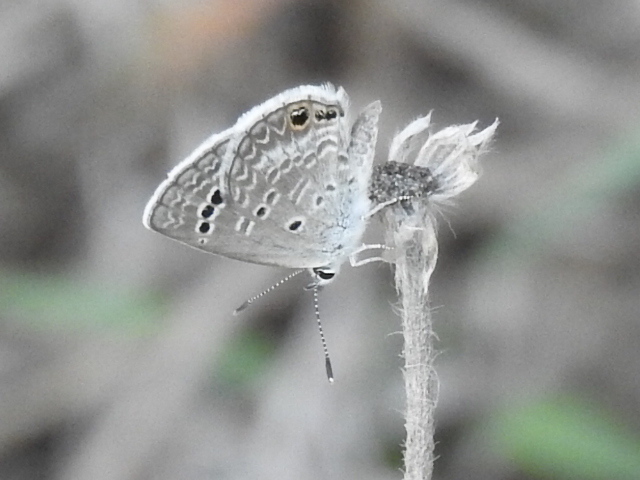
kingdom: Animalia
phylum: Arthropoda
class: Insecta
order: Lepidoptera
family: Lycaenidae
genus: Echinargus
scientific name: Echinargus isola
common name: Reakirt's blue
